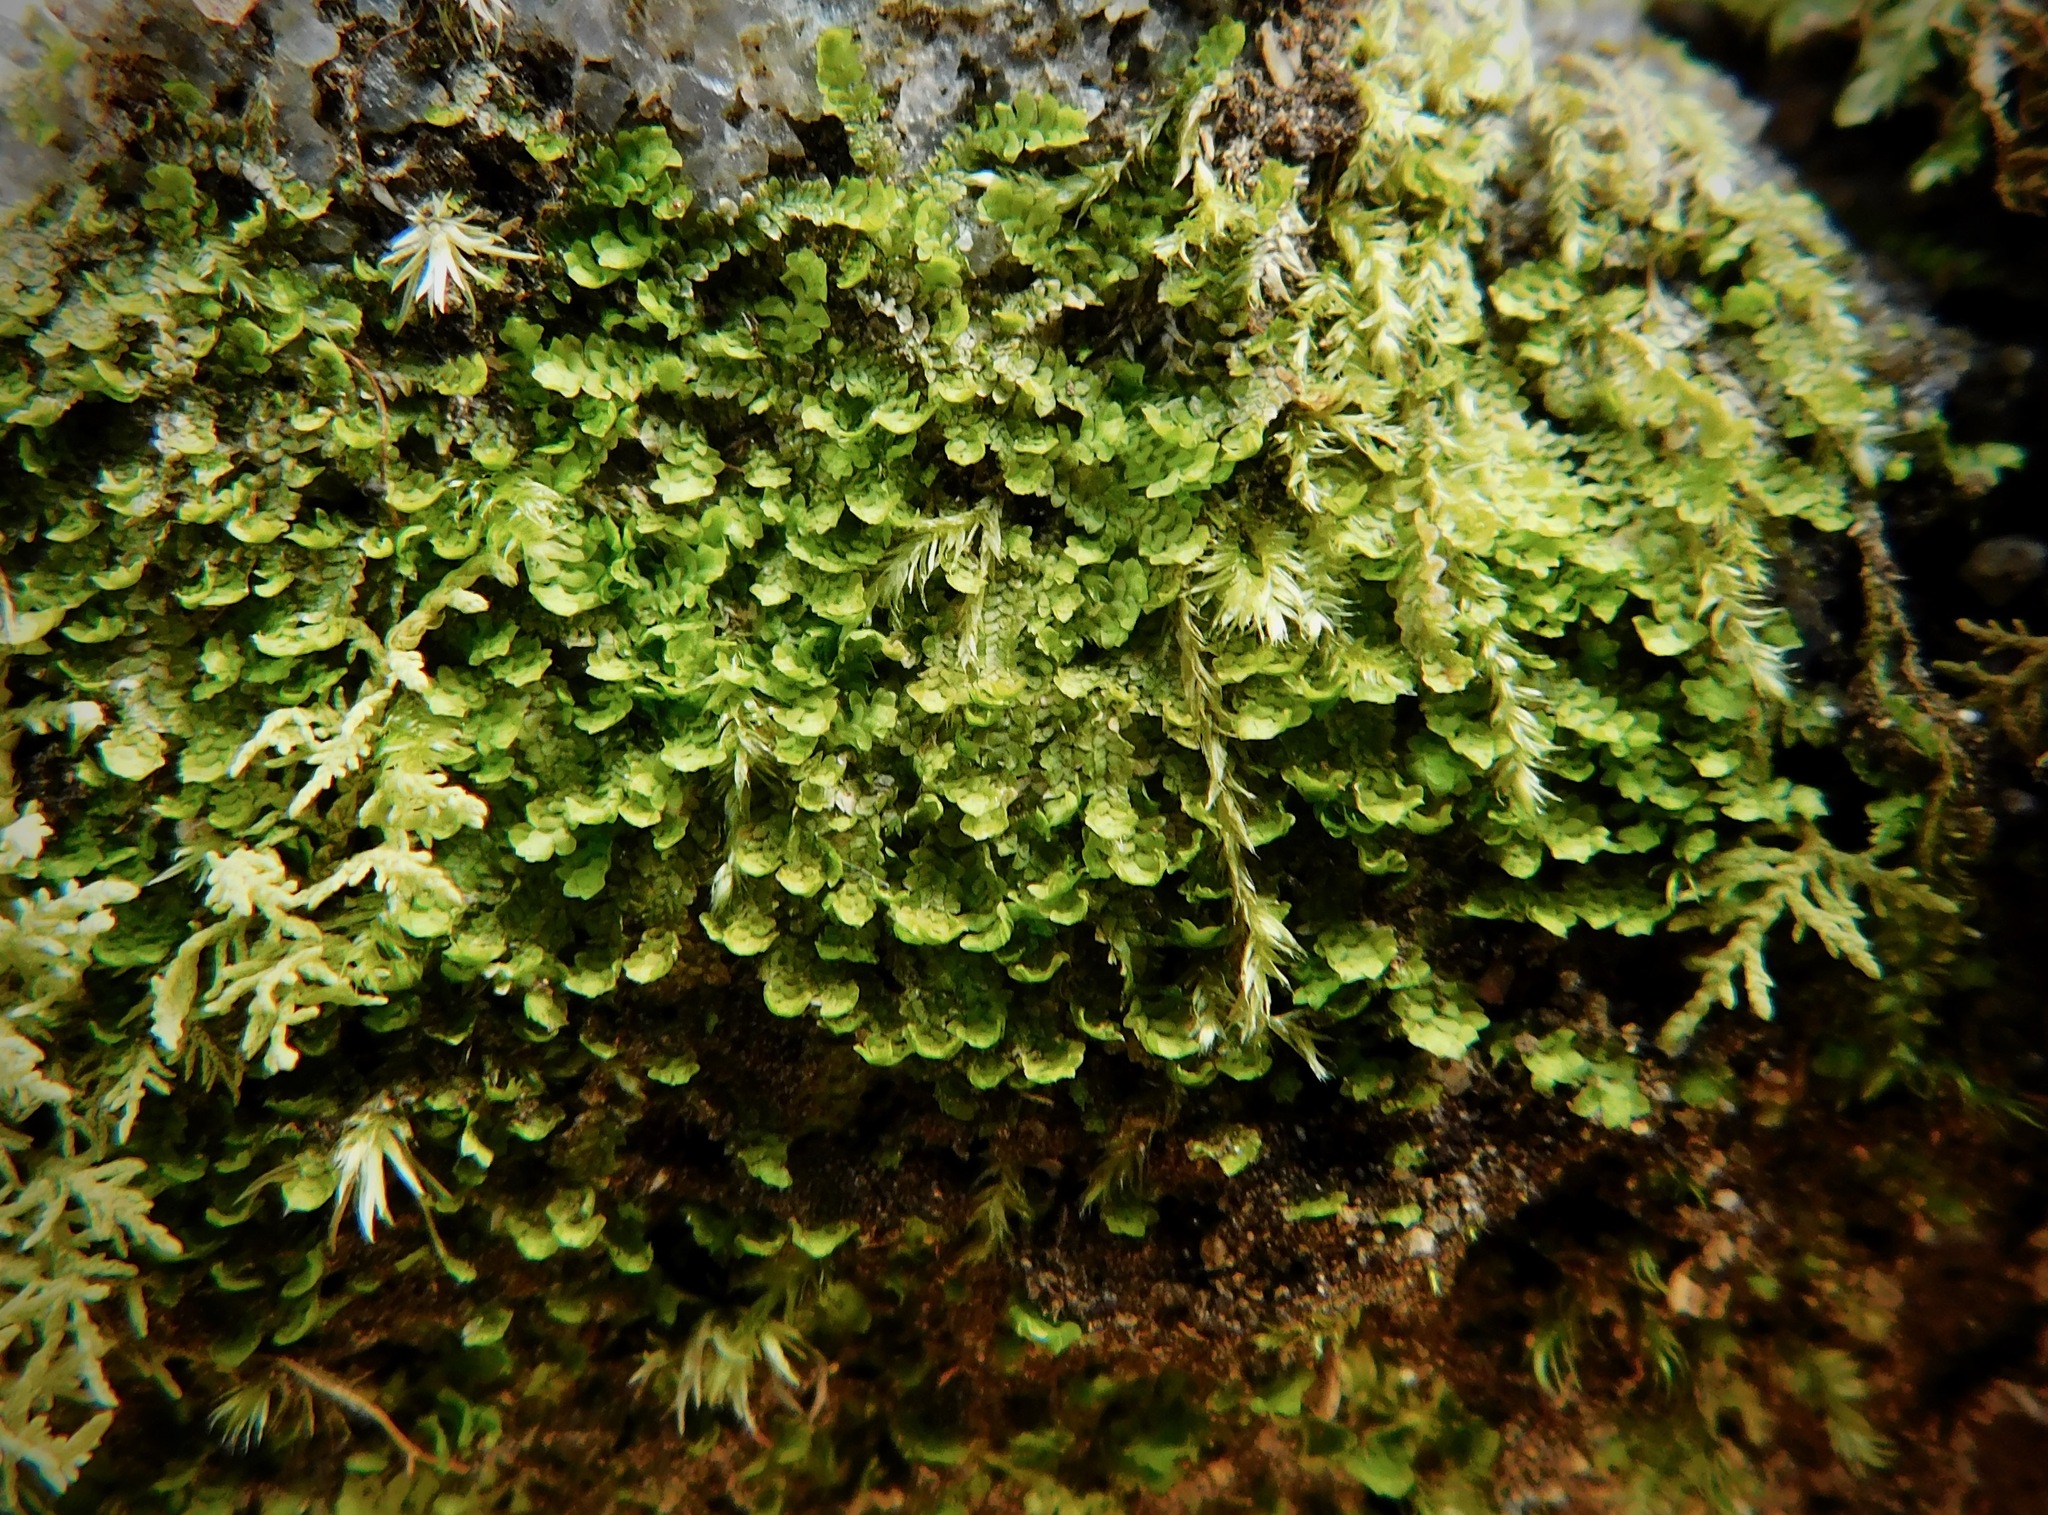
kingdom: Plantae
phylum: Marchantiophyta
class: Jungermanniopsida
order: Jungermanniales
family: Scapaniaceae
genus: Diplophyllum
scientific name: Diplophyllum apiculatum
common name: Sharp-pointed earwort
